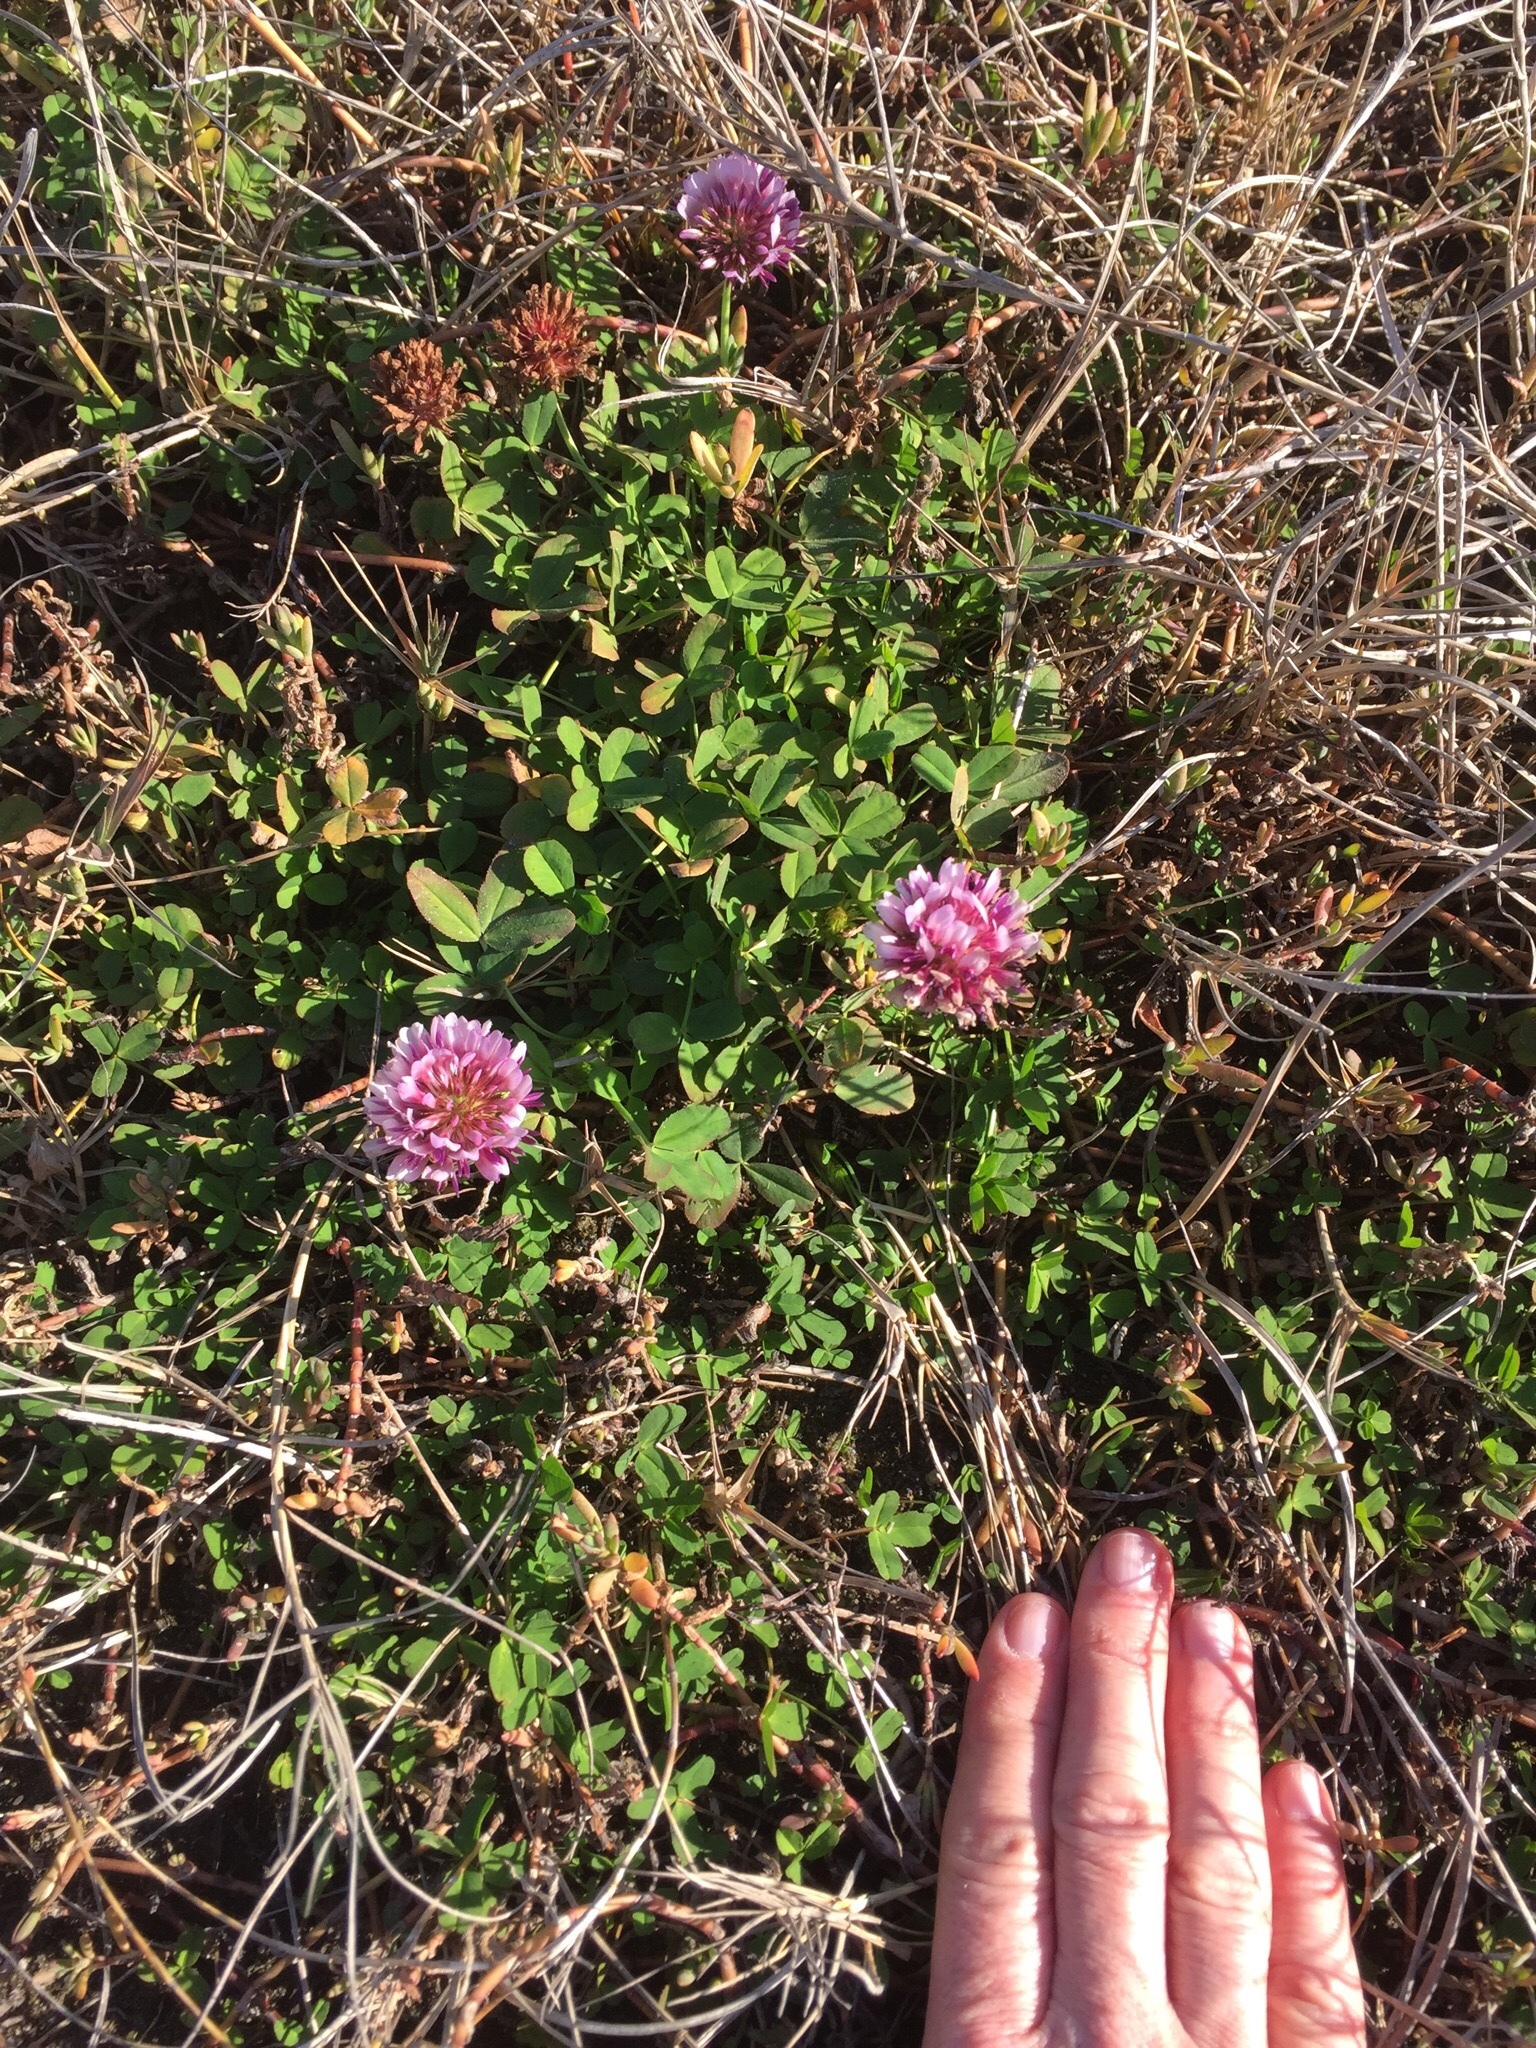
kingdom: Plantae
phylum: Tracheophyta
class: Magnoliopsida
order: Fabales
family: Fabaceae
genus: Trifolium
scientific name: Trifolium wormskioldii
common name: Springbank clover
